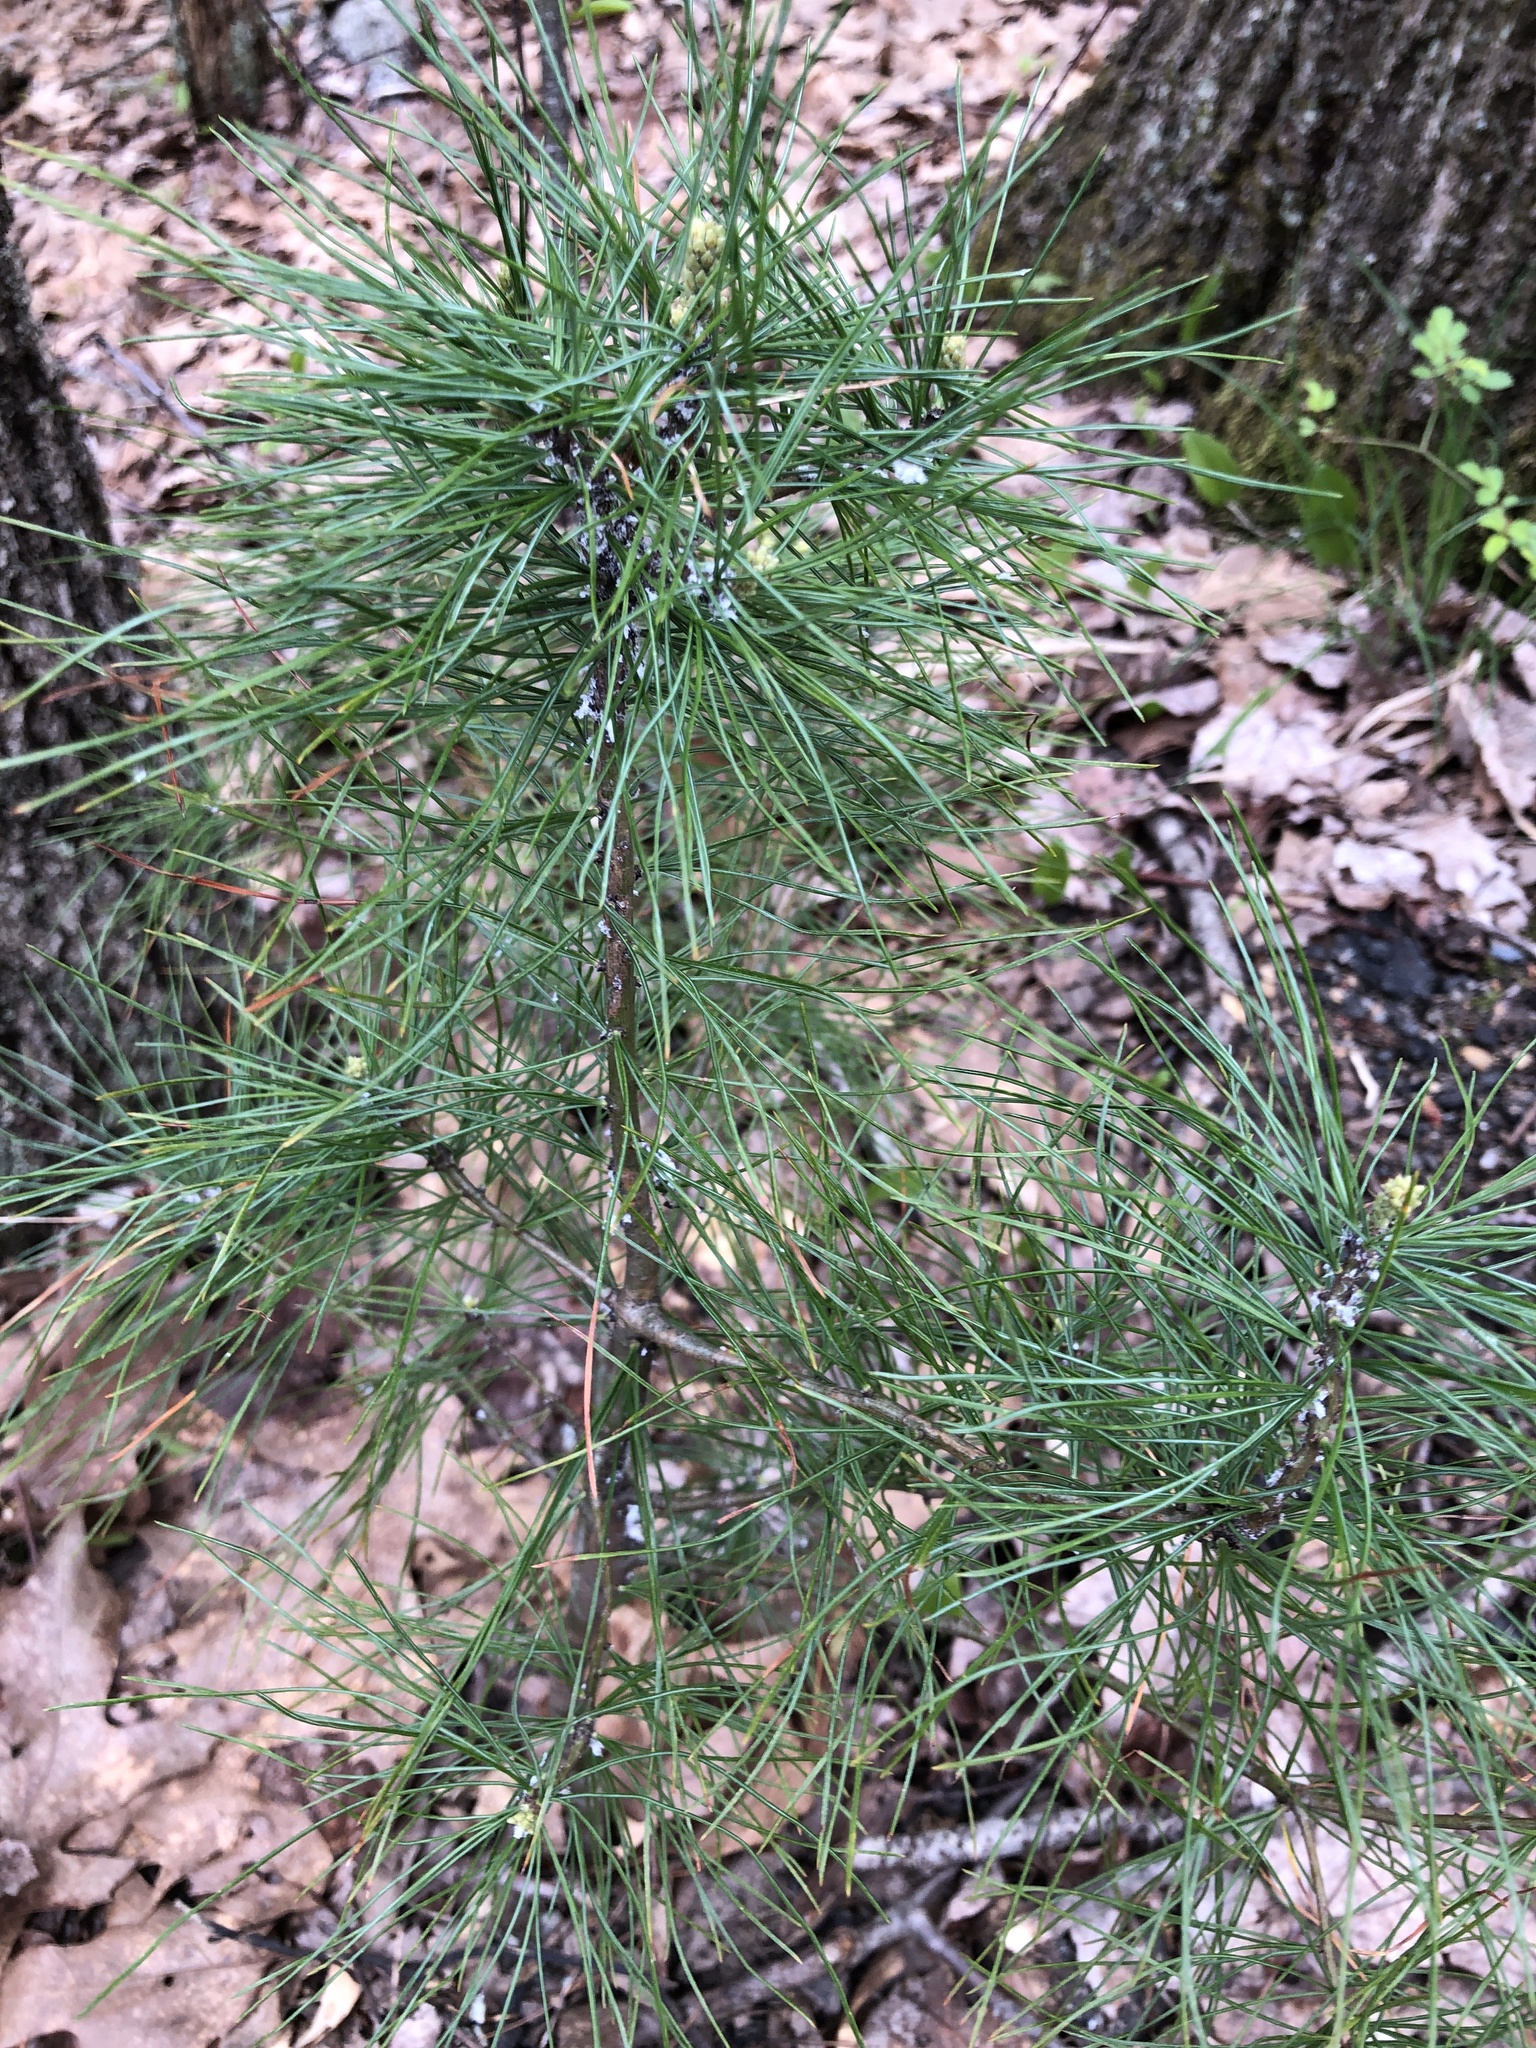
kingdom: Plantae
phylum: Tracheophyta
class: Pinopsida
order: Pinales
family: Pinaceae
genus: Pinus
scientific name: Pinus strobus
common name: Weymouth pine
